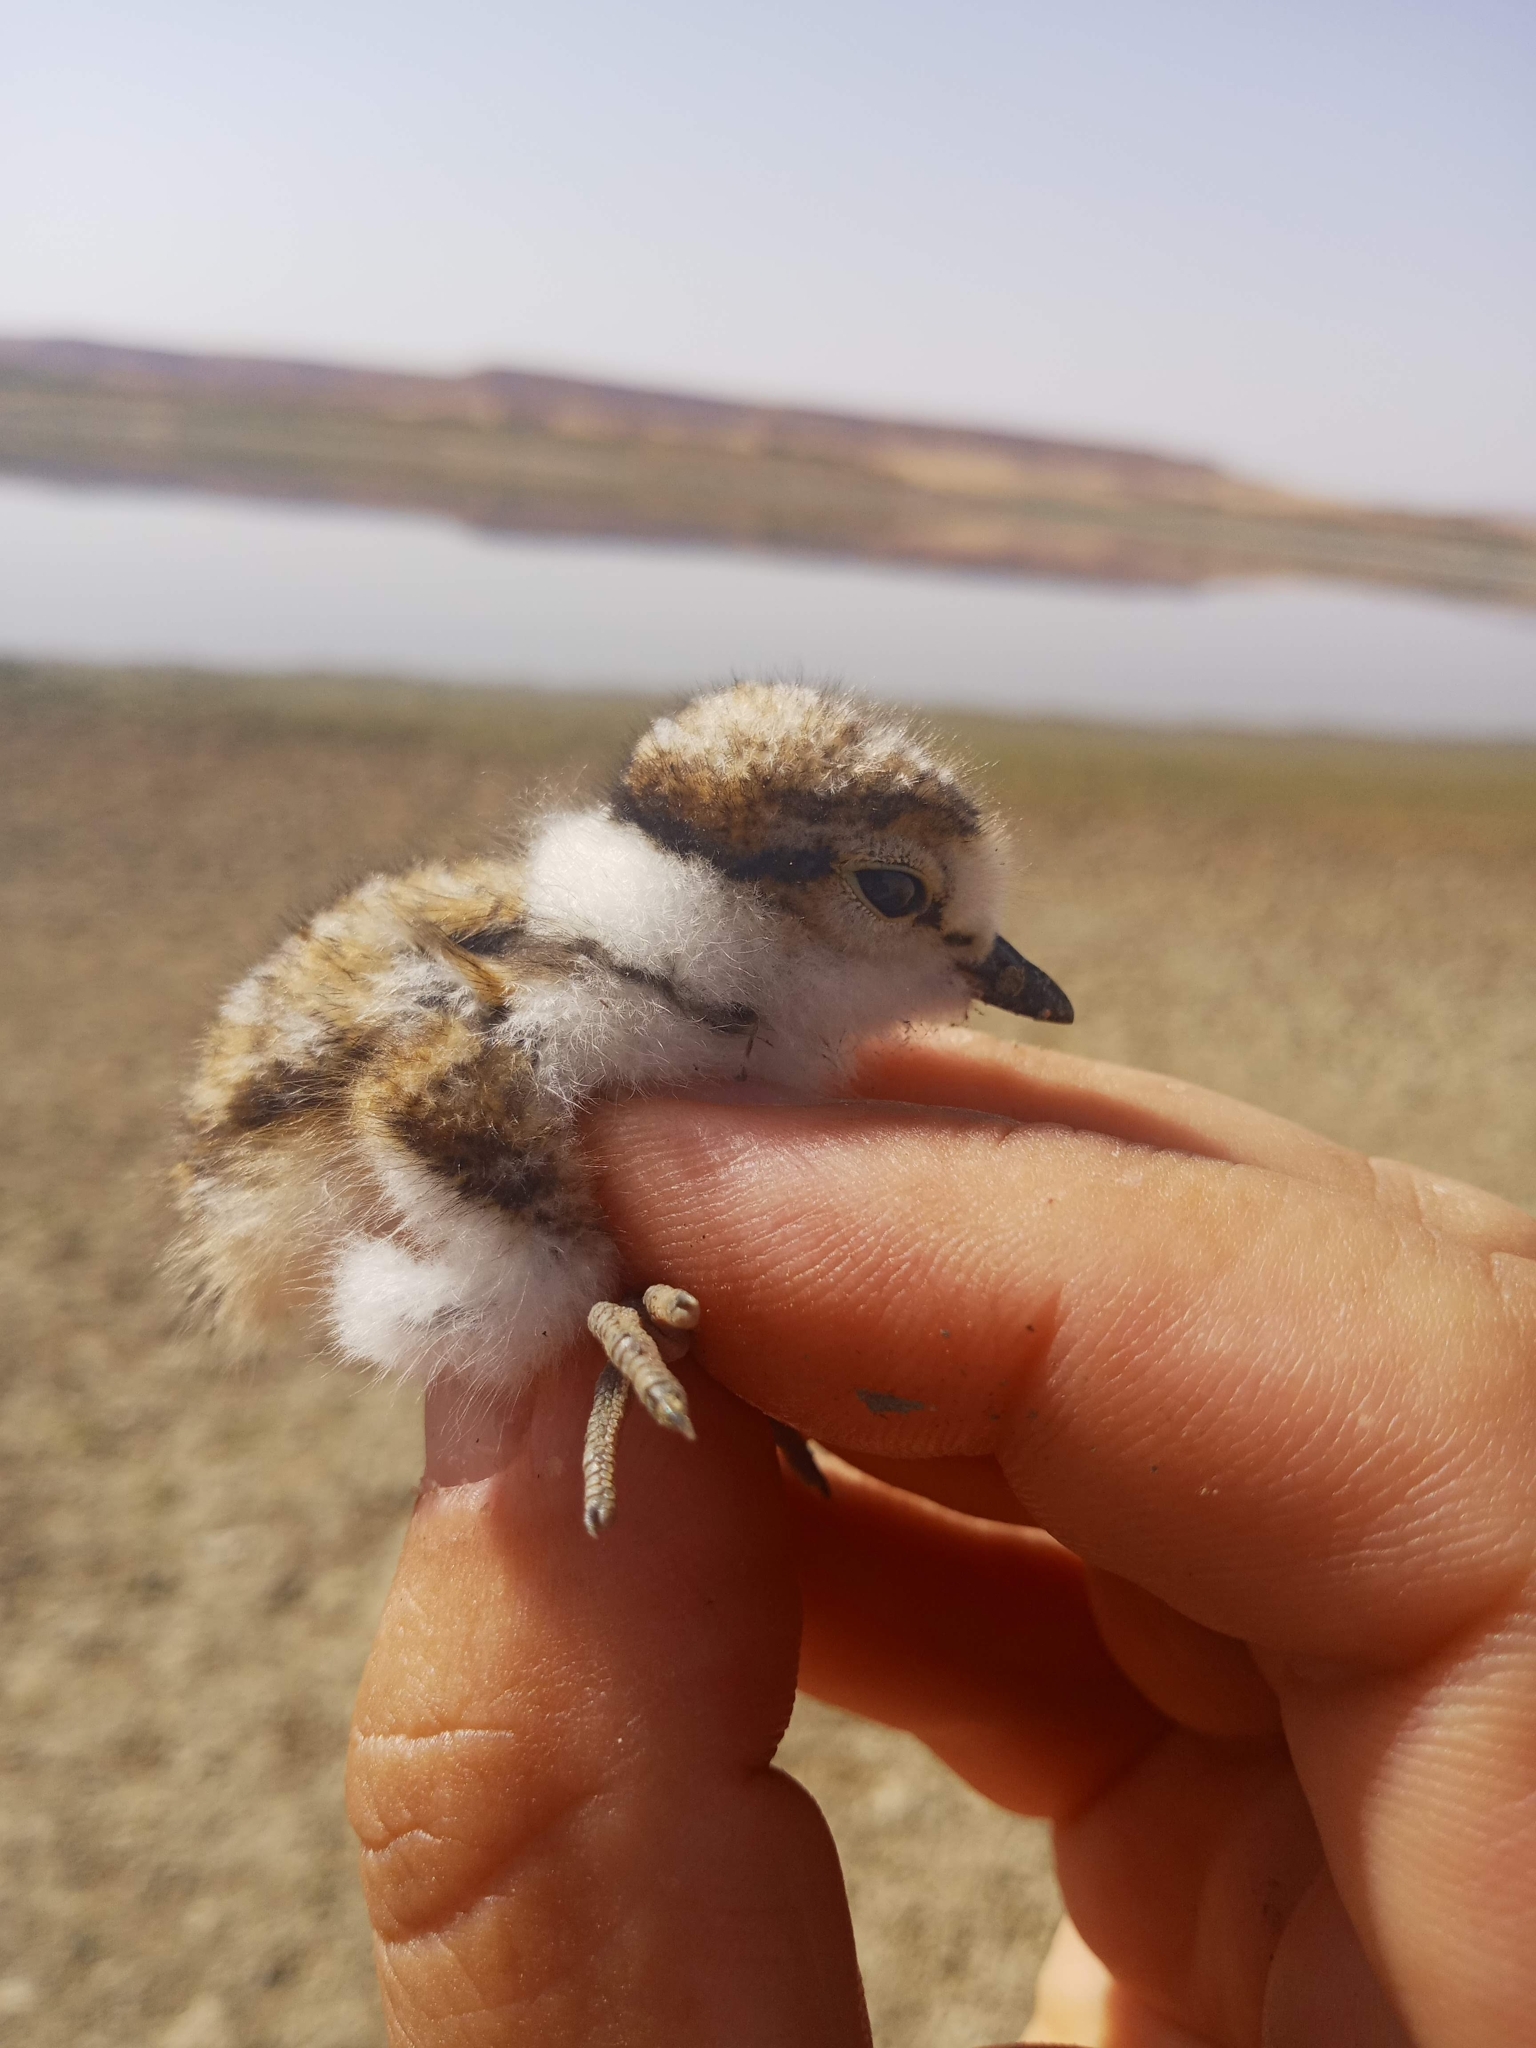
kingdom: Animalia
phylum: Chordata
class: Aves
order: Charadriiformes
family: Charadriidae
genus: Charadrius
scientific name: Charadrius alexandrinus
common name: Kentish plover
